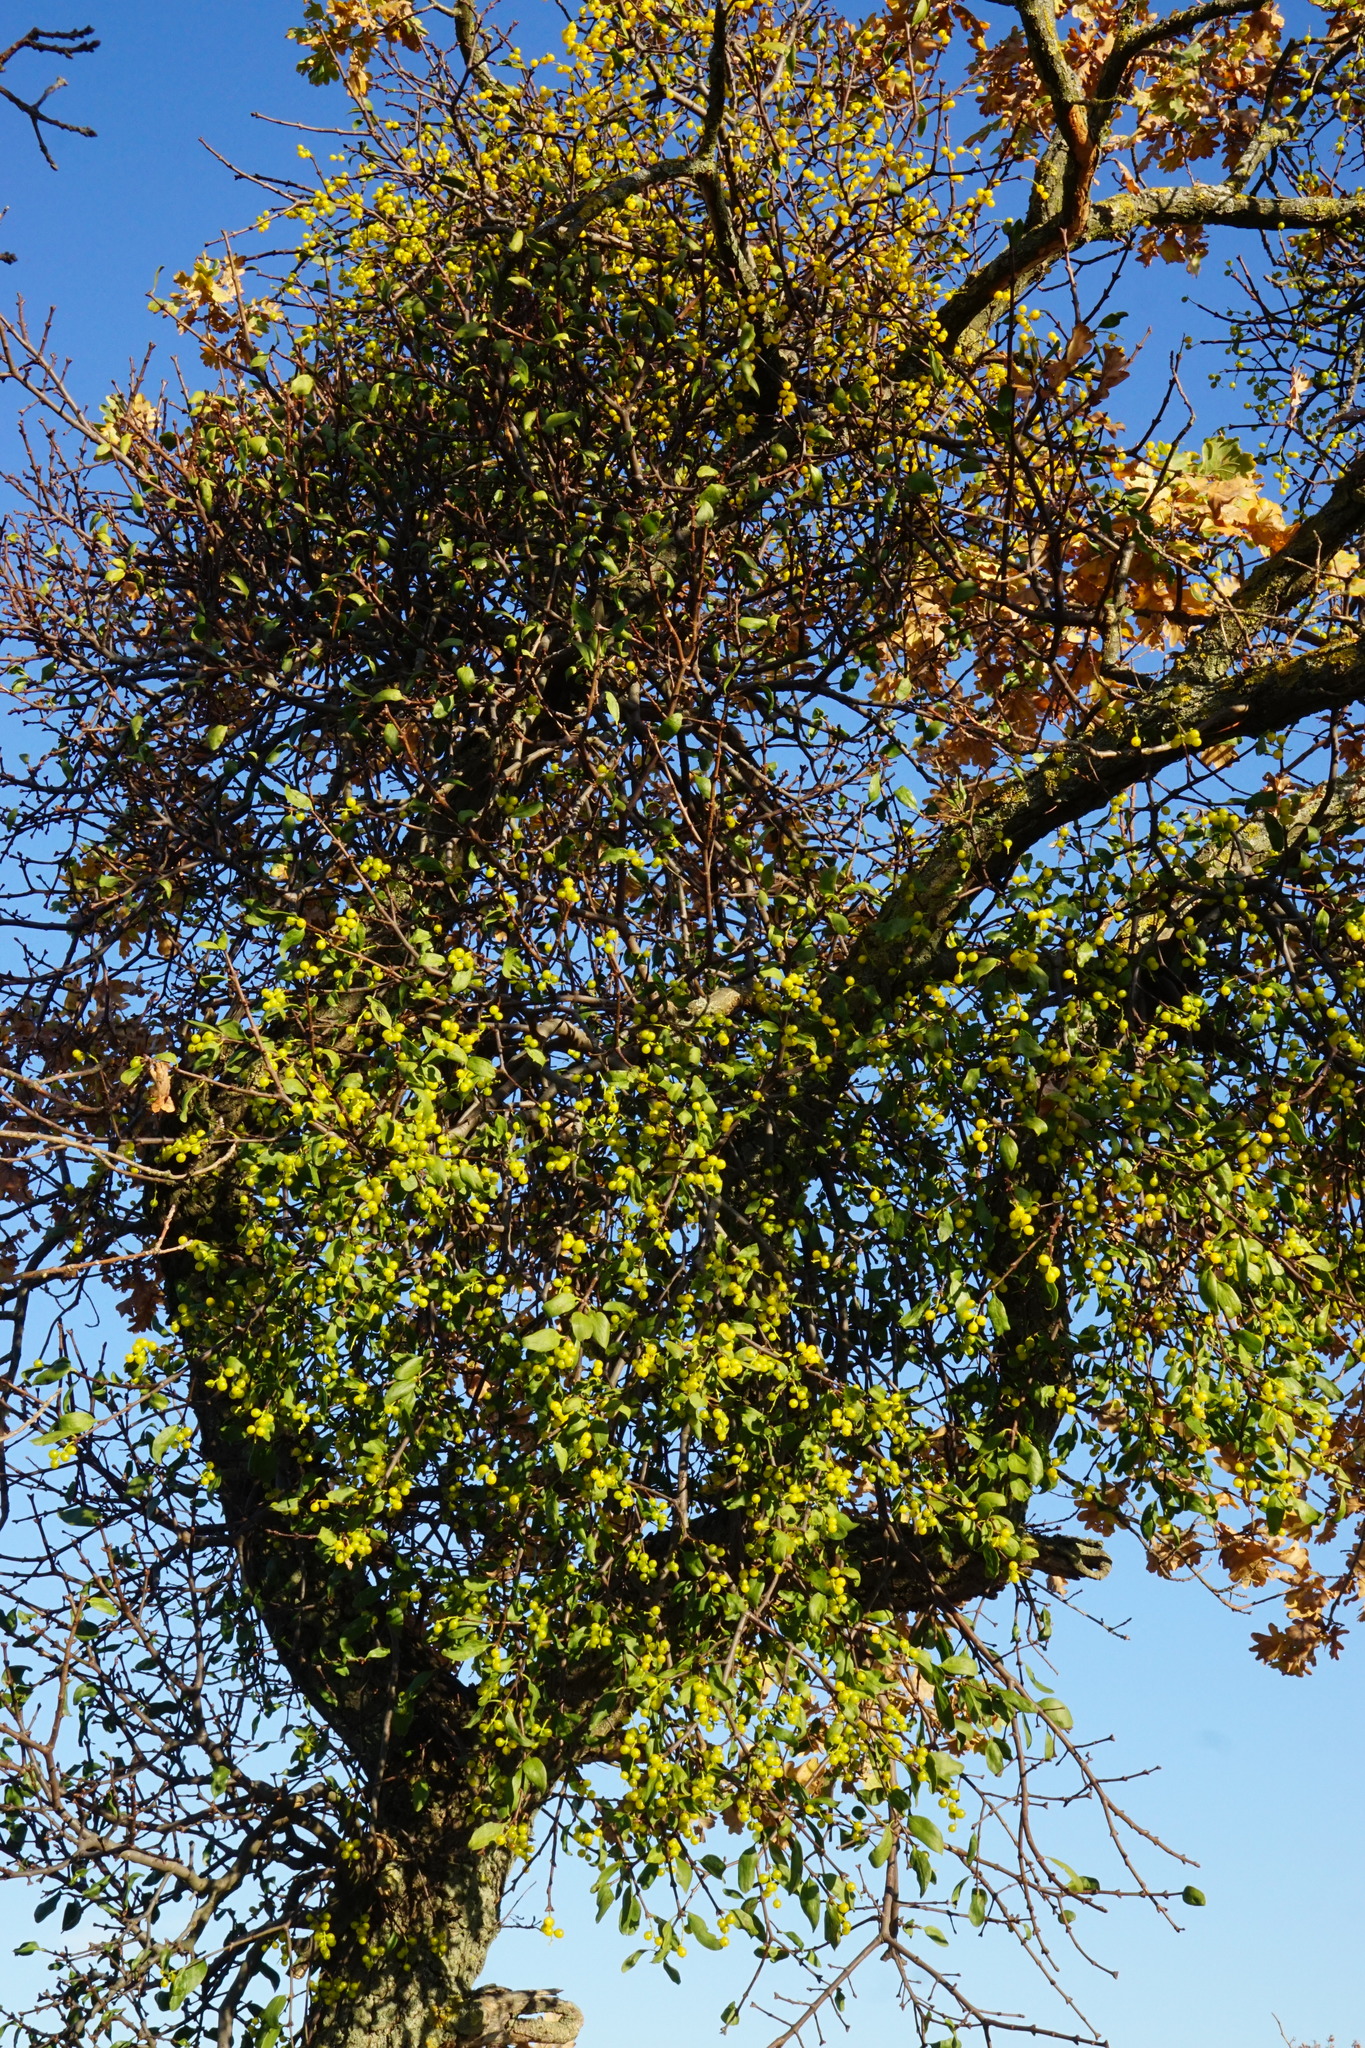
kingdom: Plantae
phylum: Tracheophyta
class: Magnoliopsida
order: Santalales
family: Loranthaceae
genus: Loranthus
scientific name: Loranthus europaeus
